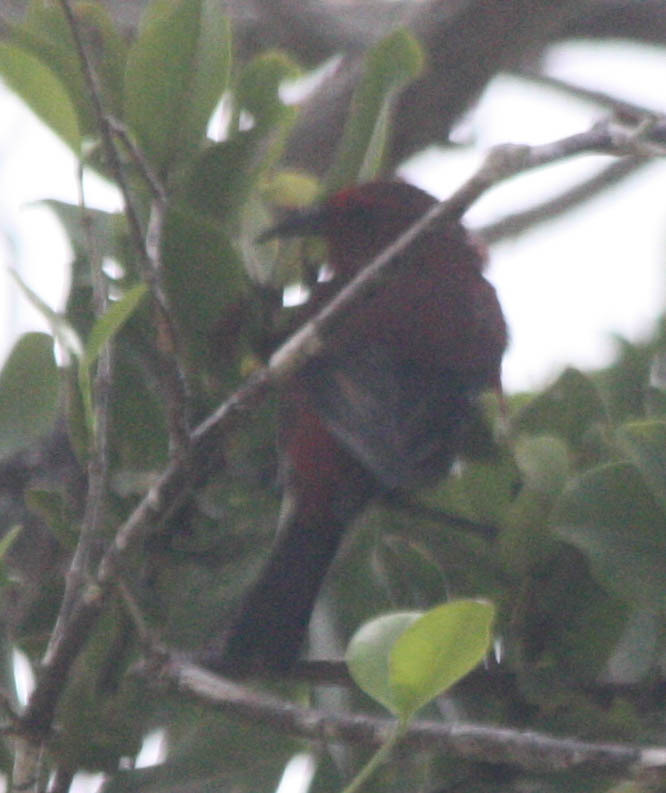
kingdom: Animalia
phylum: Chordata
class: Aves
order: Passeriformes
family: Fringillidae
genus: Himatione
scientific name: Himatione sanguinea
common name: Apapane
